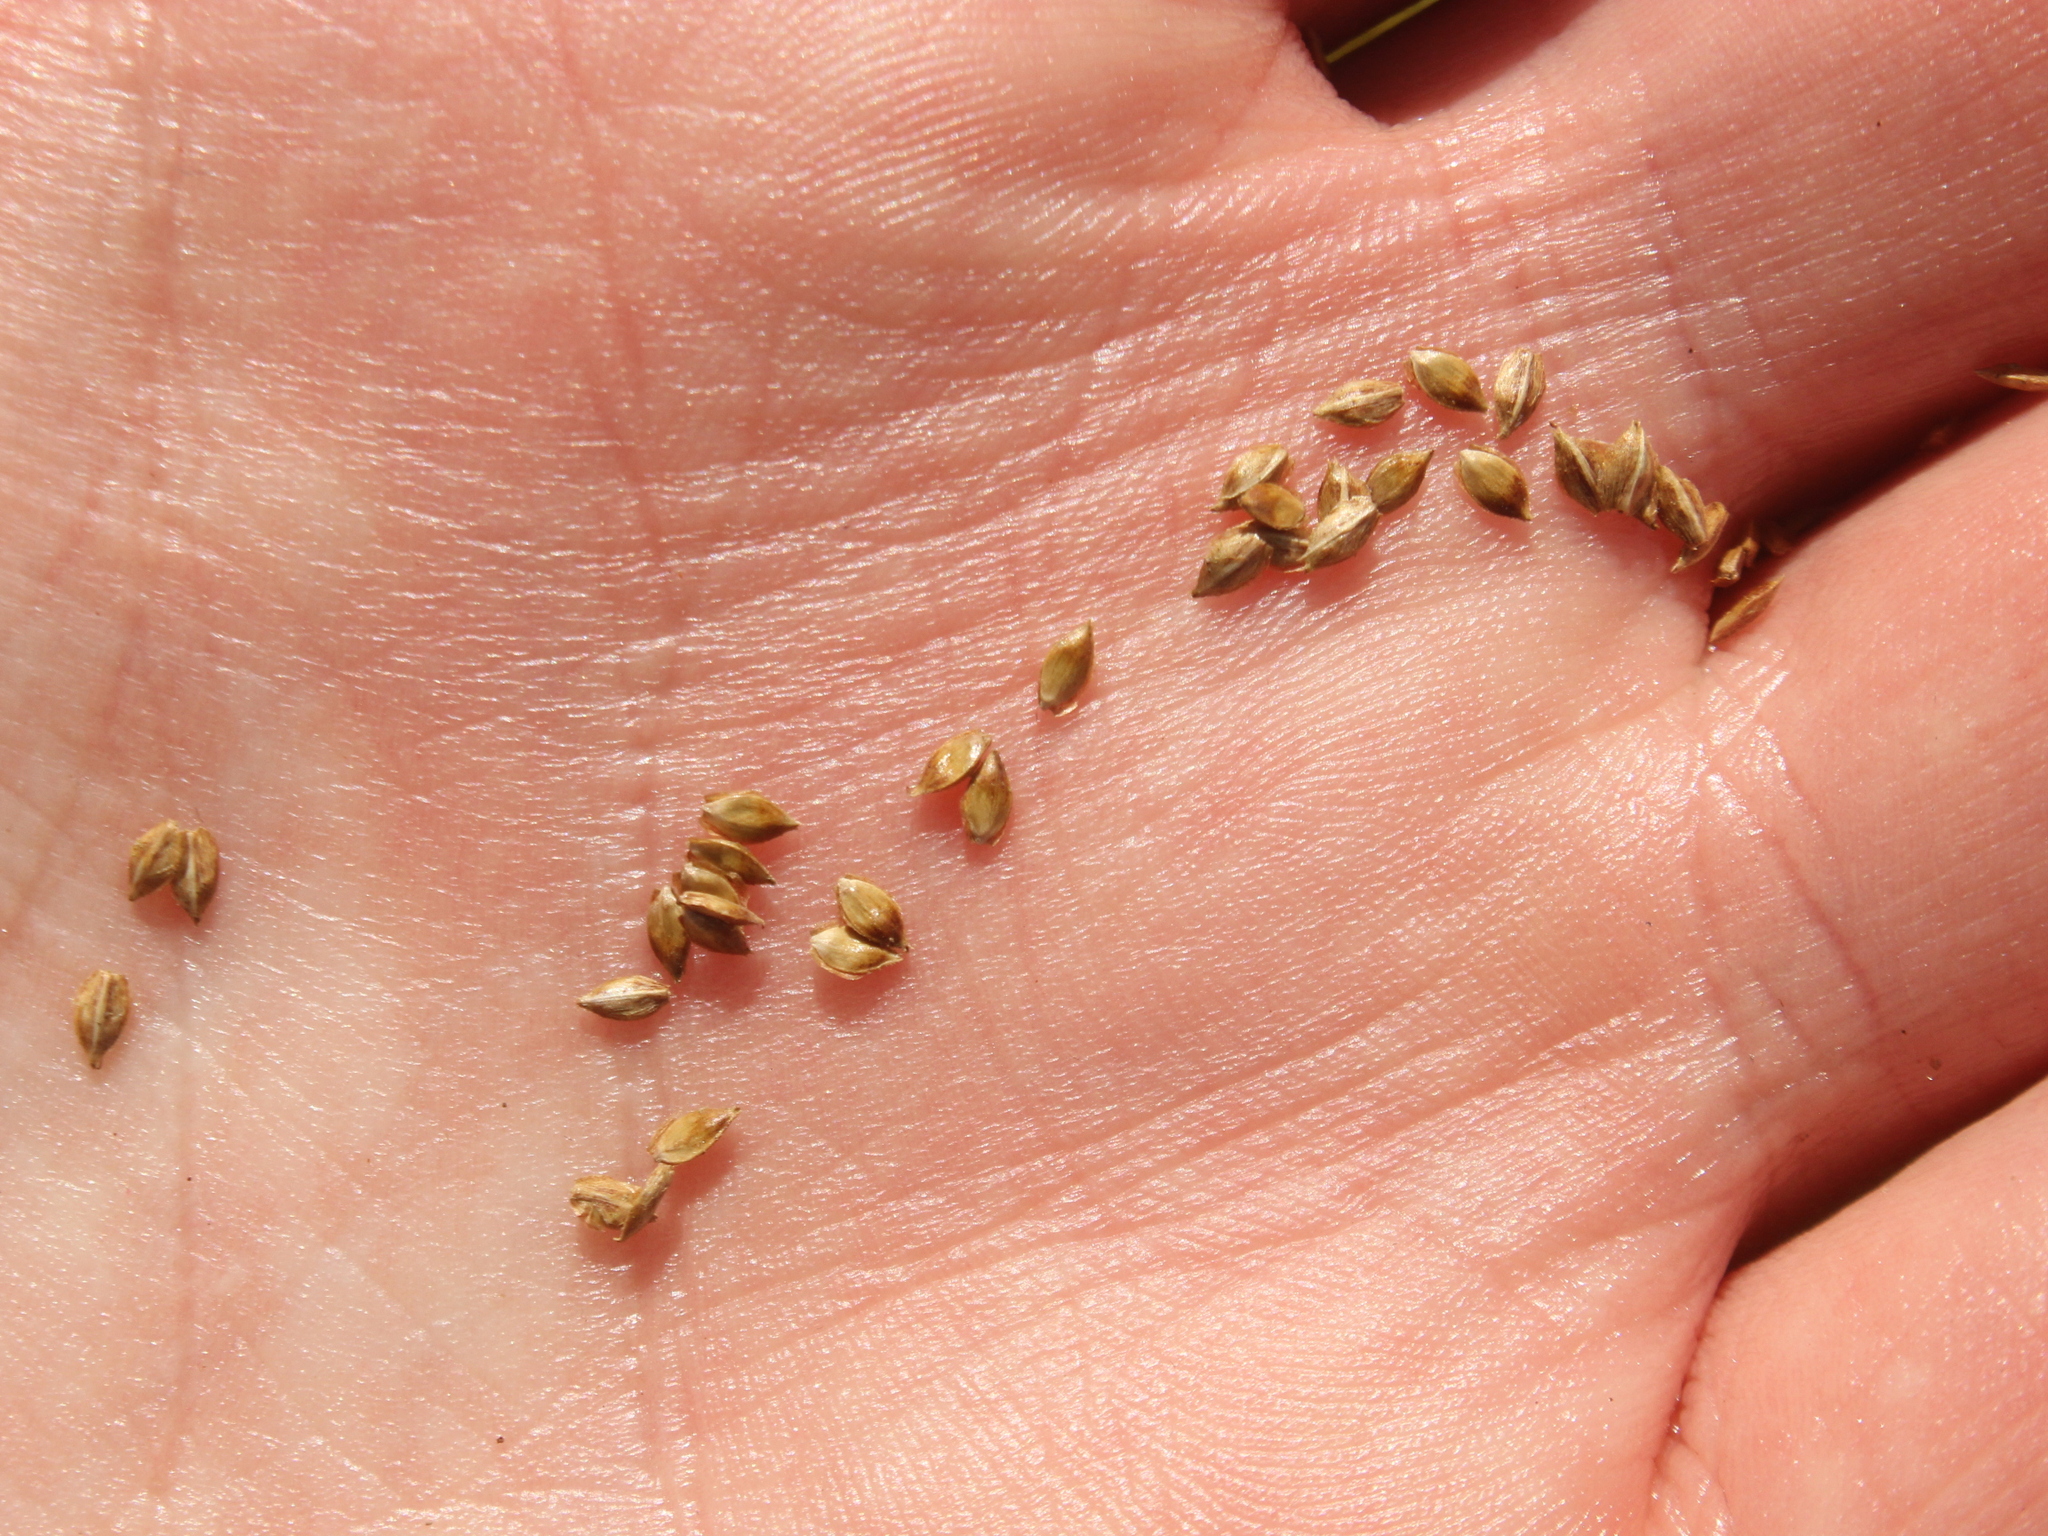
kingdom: Plantae
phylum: Tracheophyta
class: Liliopsida
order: Poales
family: Cyperaceae
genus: Carex
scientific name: Carex dipsacea
